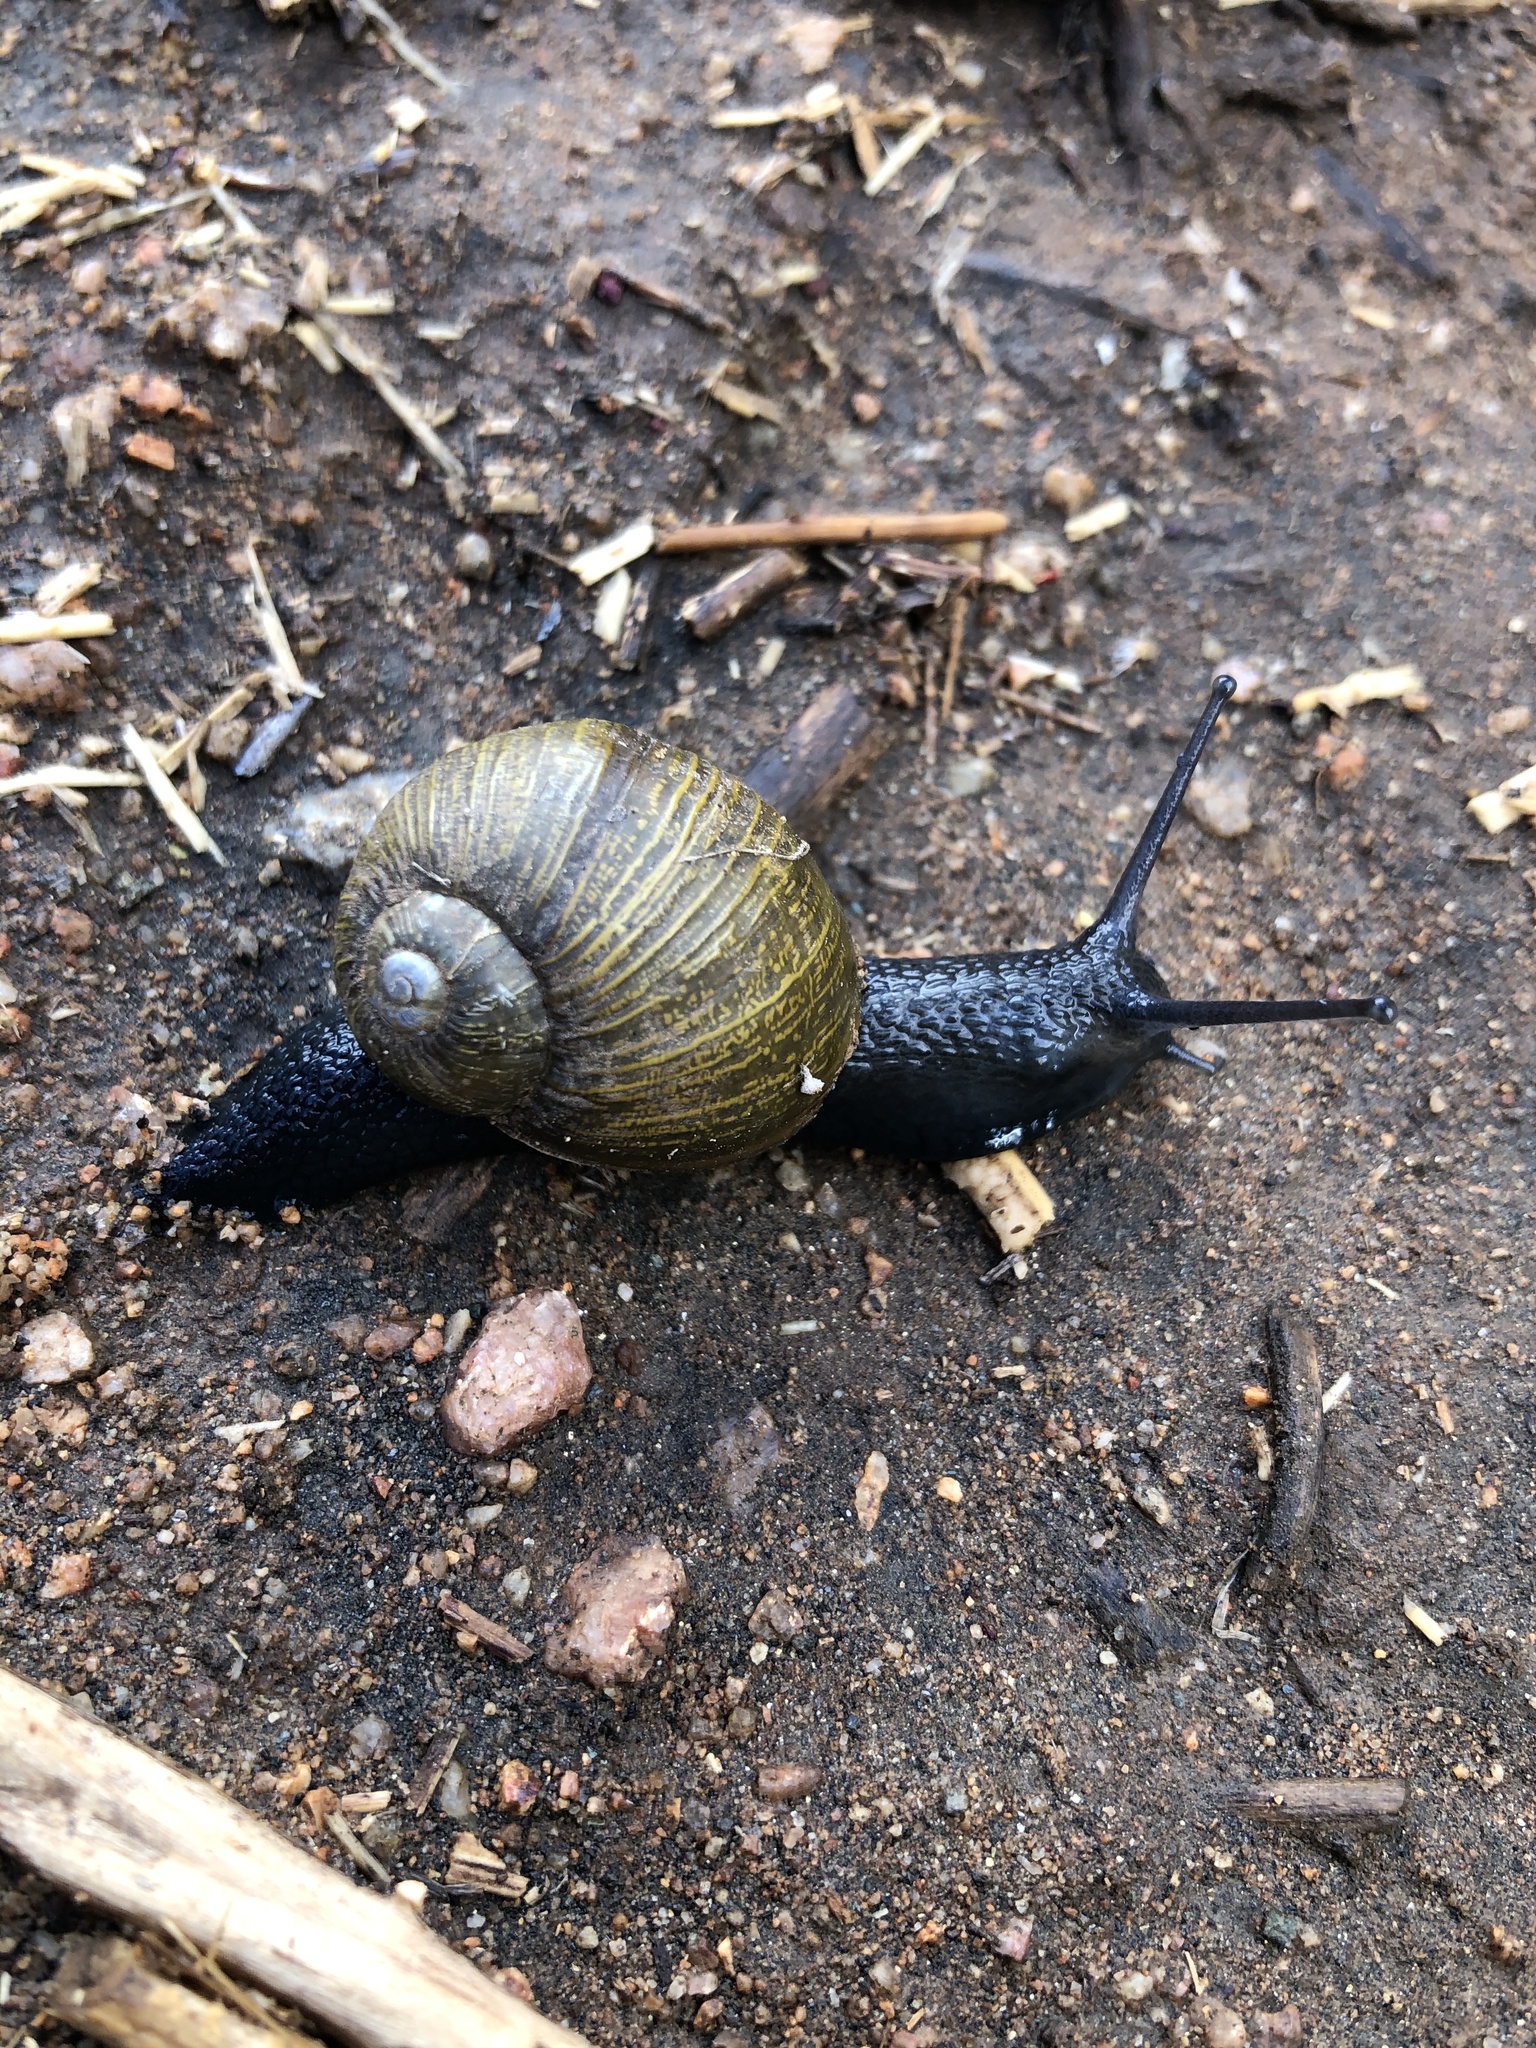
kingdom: Animalia
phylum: Mollusca
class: Gastropoda
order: Stylommatophora
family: Helicidae
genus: Cantareus
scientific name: Cantareus apertus
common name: Green gardensnail
